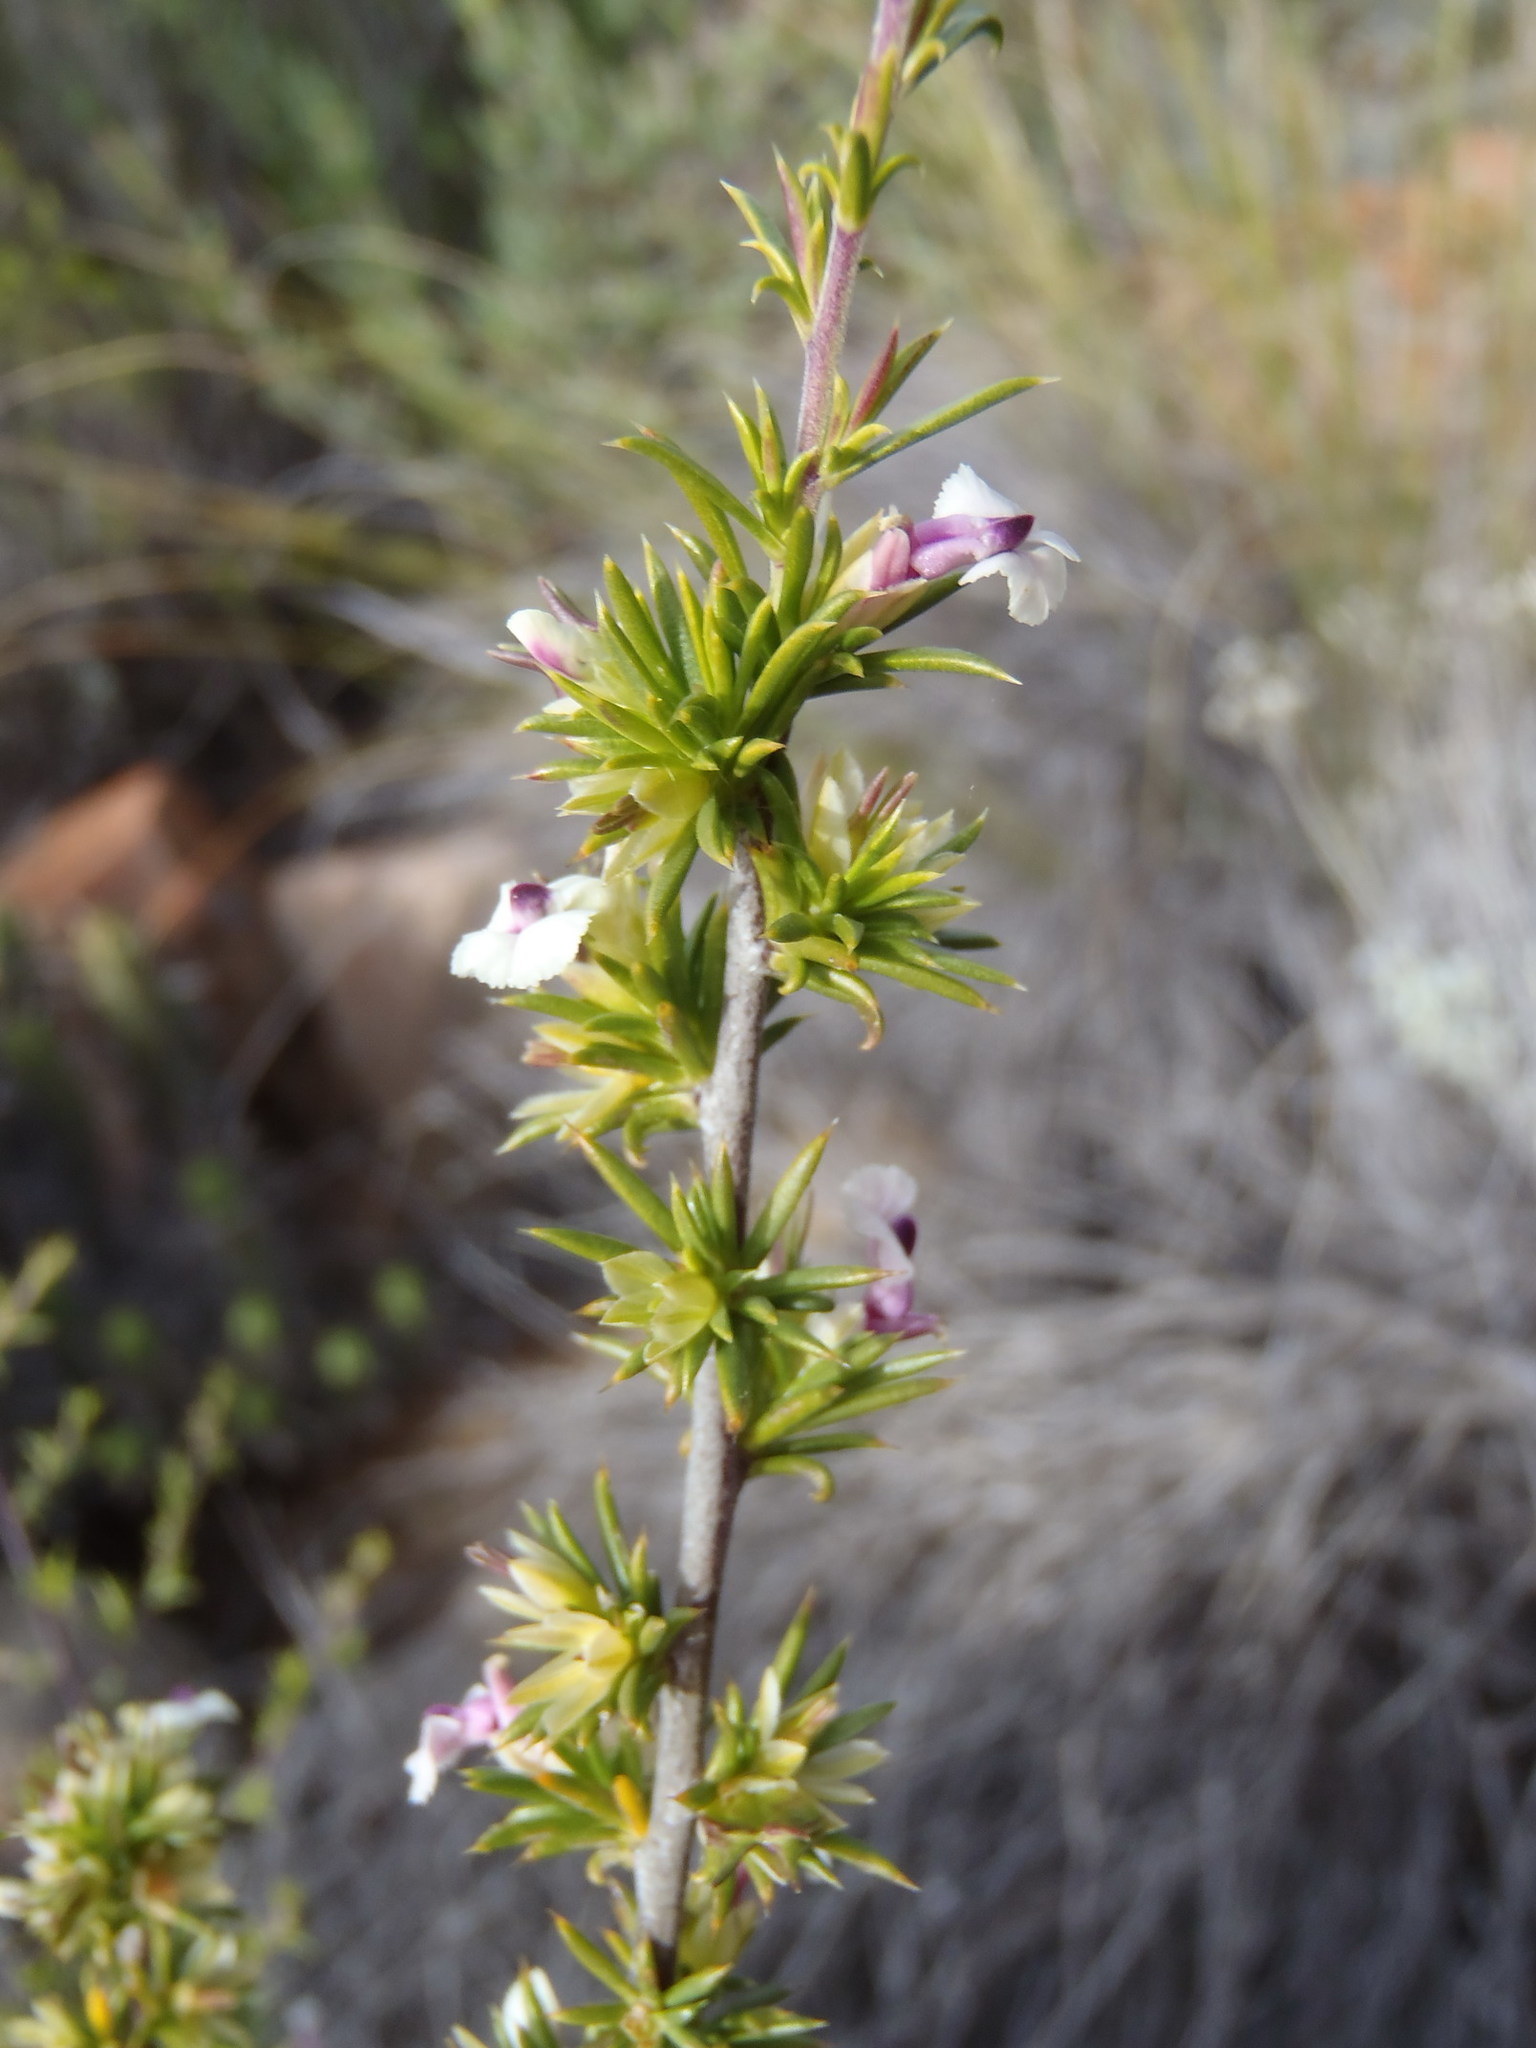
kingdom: Plantae
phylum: Tracheophyta
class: Magnoliopsida
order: Fabales
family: Polygalaceae
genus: Muraltia
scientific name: Muraltia ericifolia
